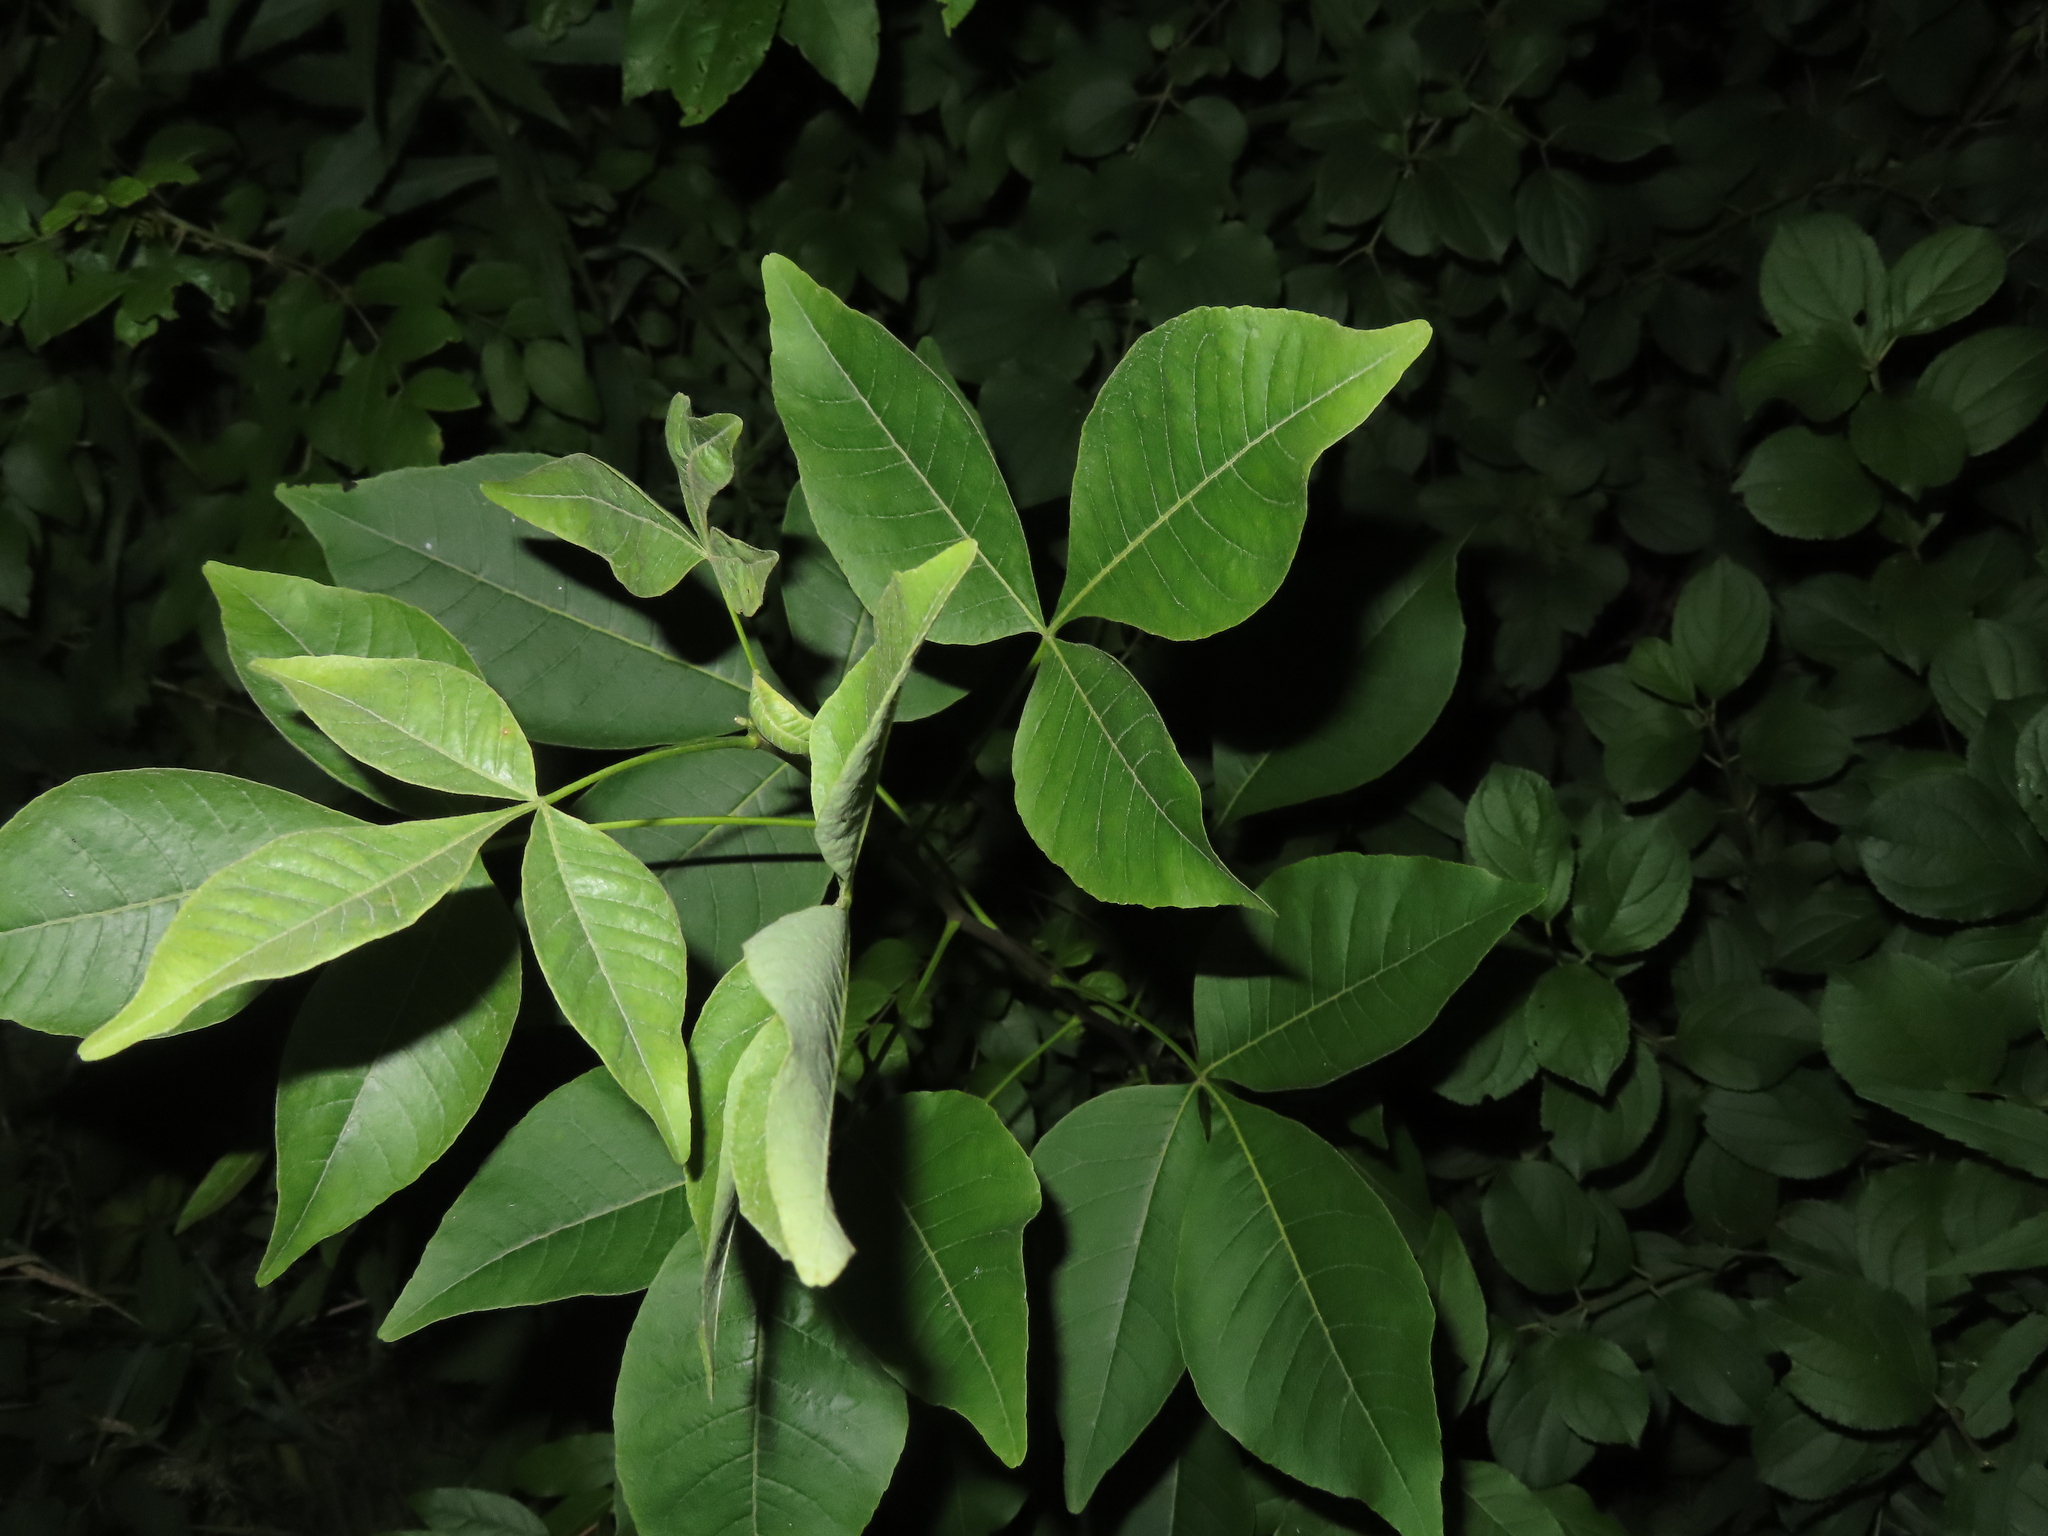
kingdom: Plantae
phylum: Tracheophyta
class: Magnoliopsida
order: Sapindales
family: Rutaceae
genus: Ptelea
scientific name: Ptelea trifoliata
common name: Common hop-tree
